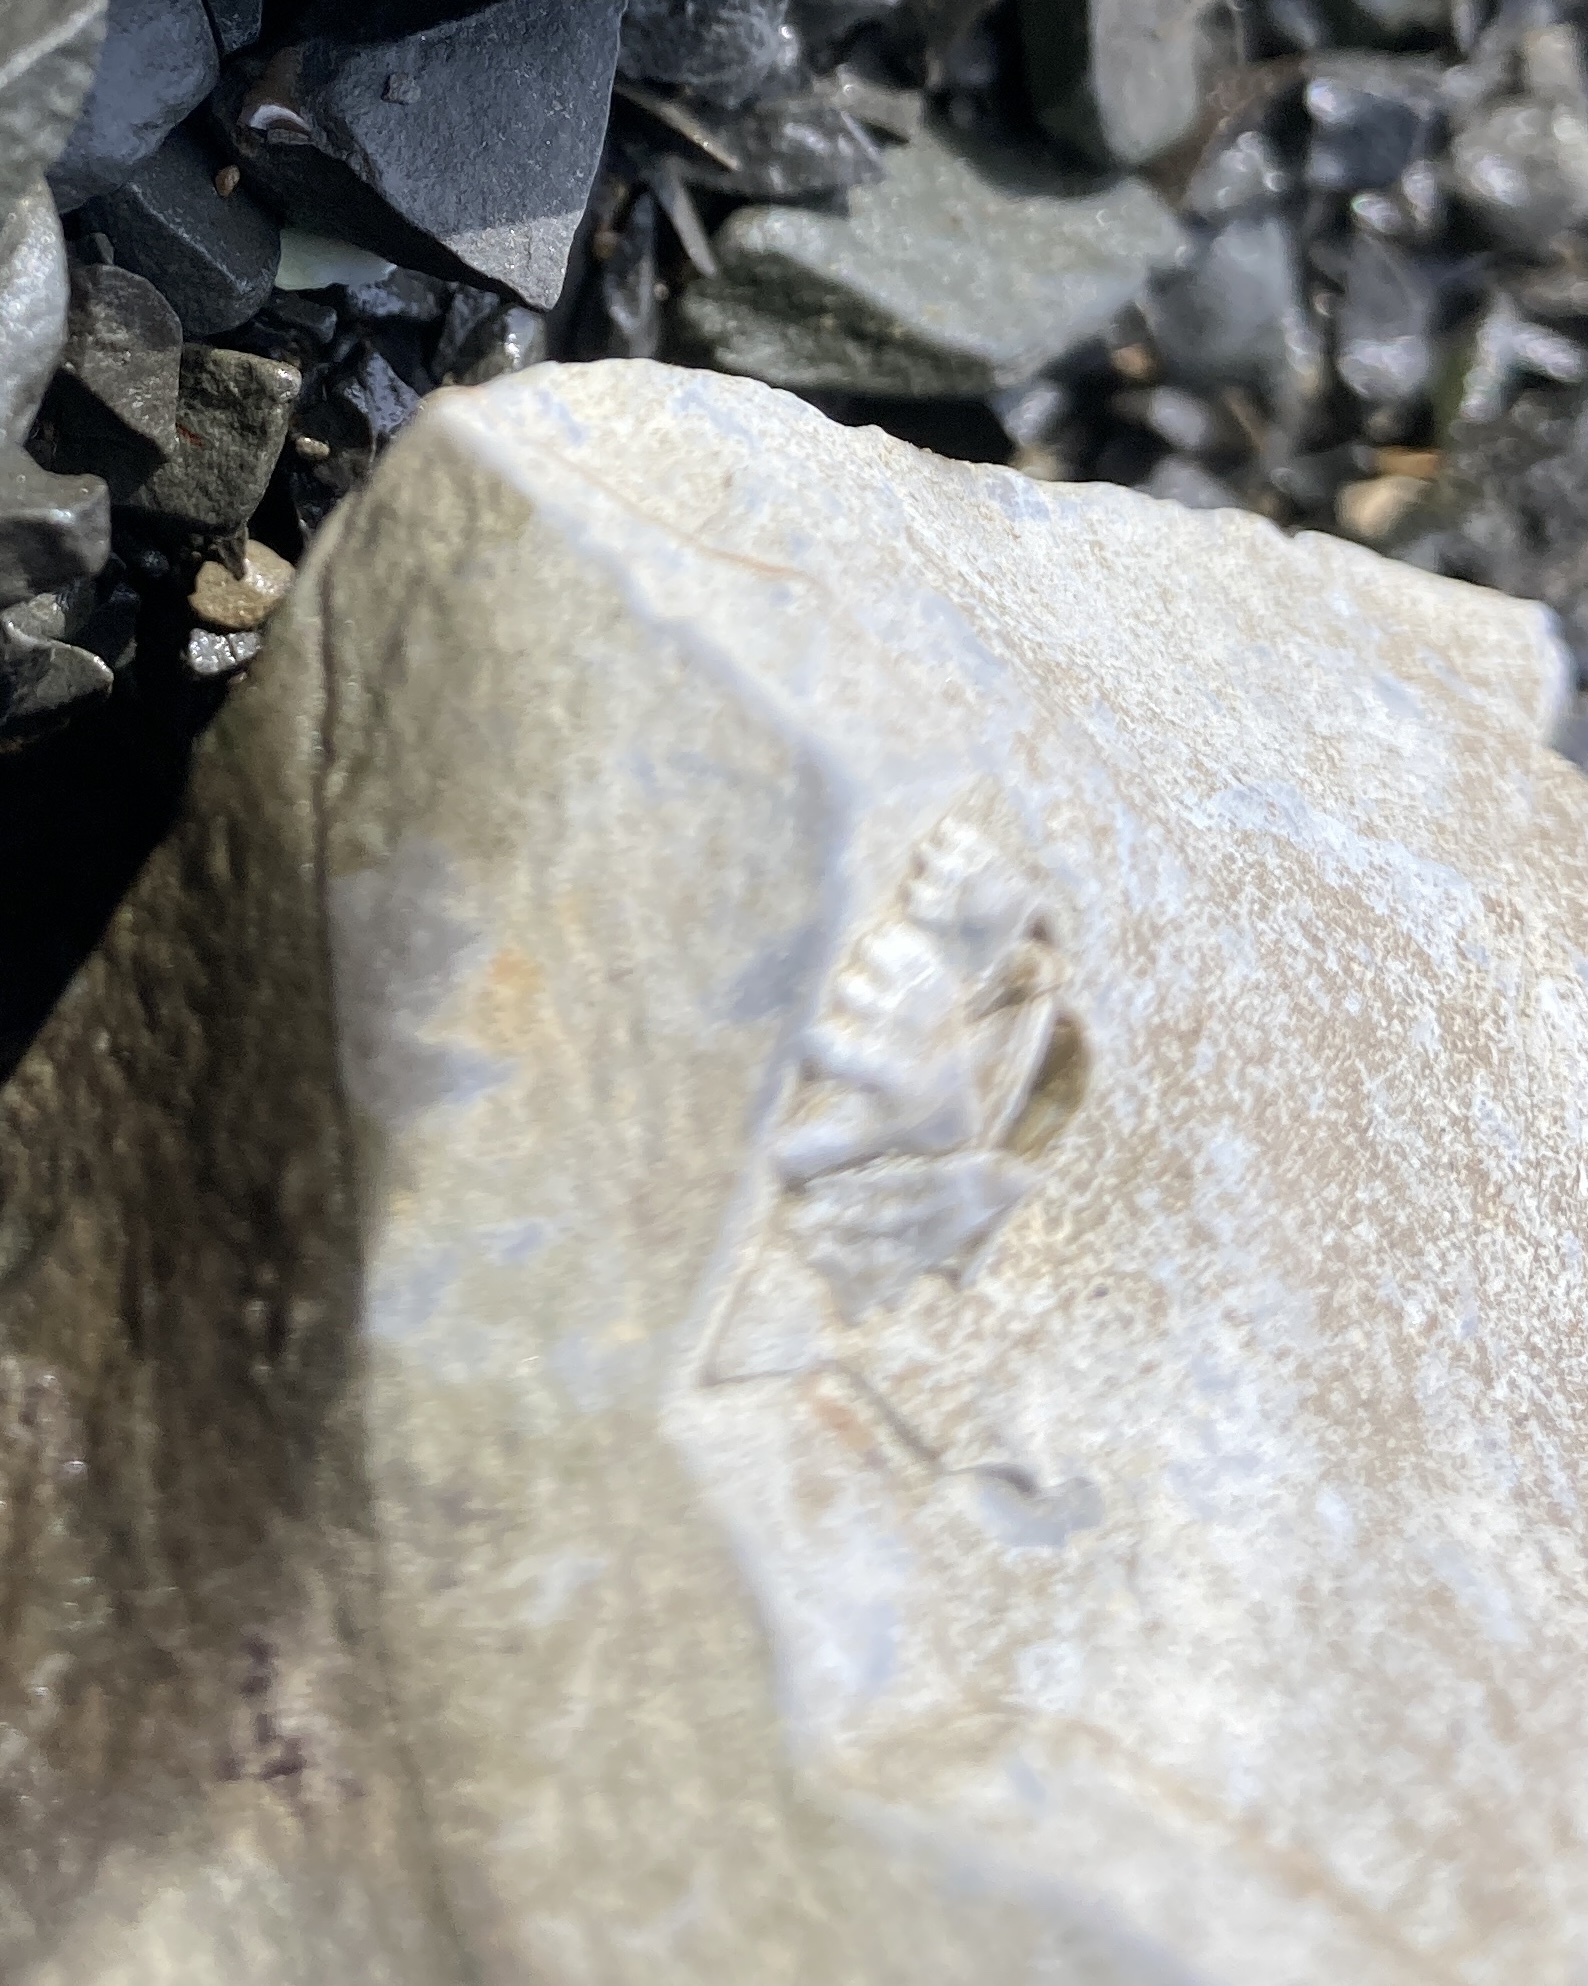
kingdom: Animalia
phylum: Arthropoda
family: Elminiidae
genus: Austrominius
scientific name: Austrominius modestus
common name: Australasian barnacle
